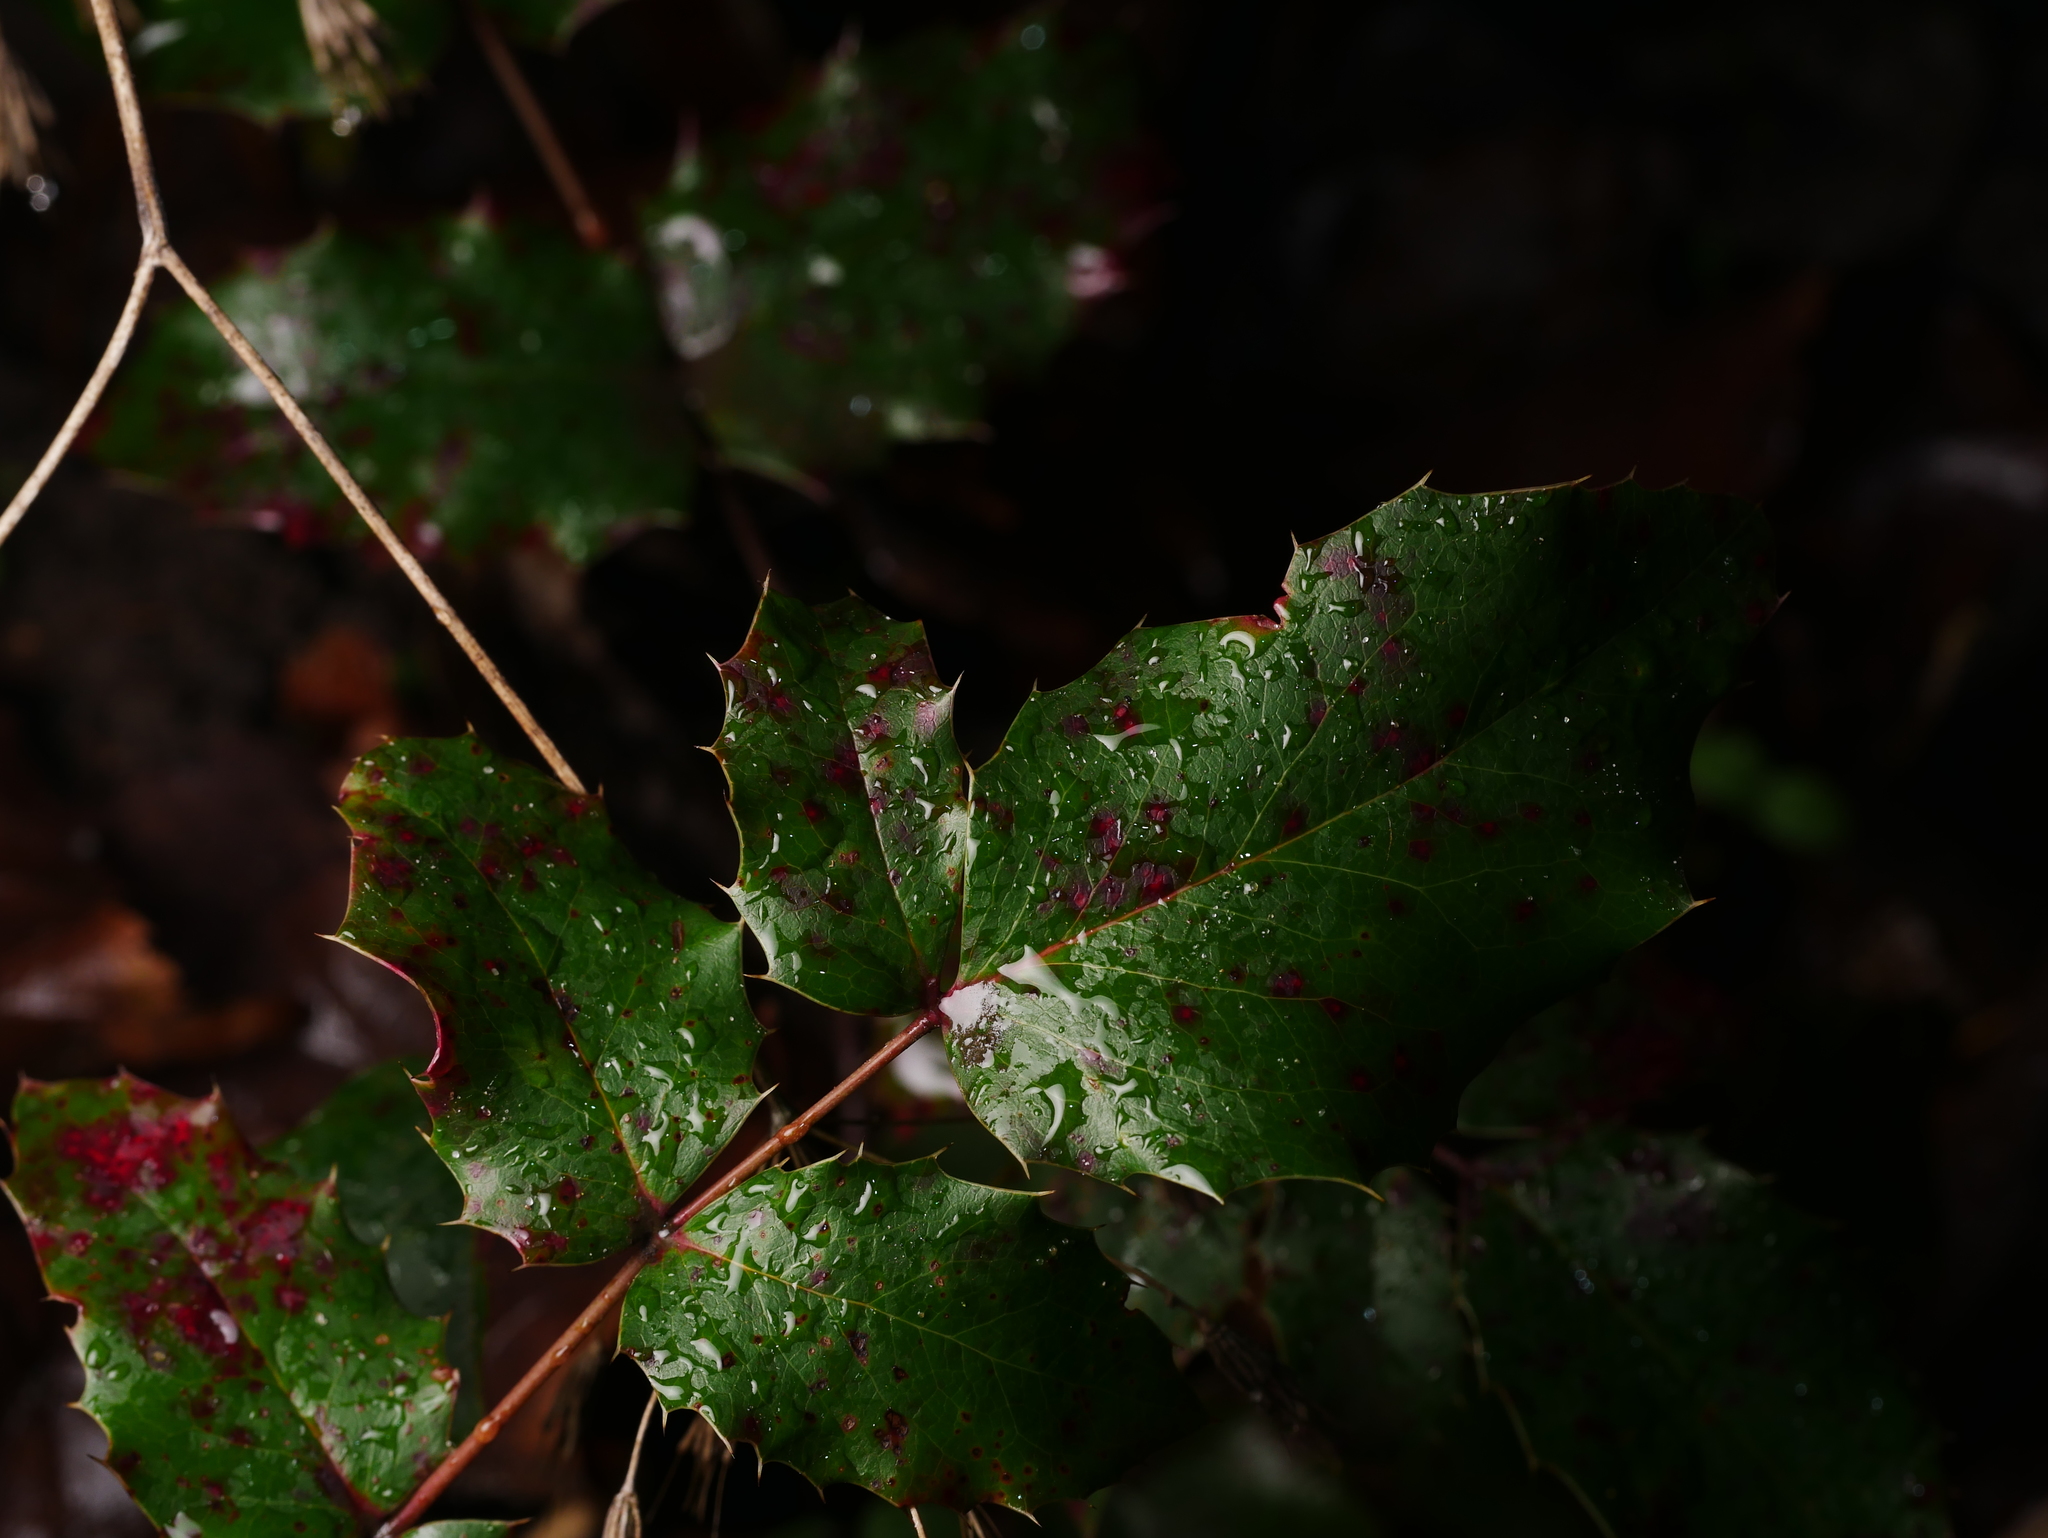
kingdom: Plantae
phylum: Tracheophyta
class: Magnoliopsida
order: Ranunculales
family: Berberidaceae
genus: Mahonia
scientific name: Mahonia aquifolium
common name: Oregon-grape
